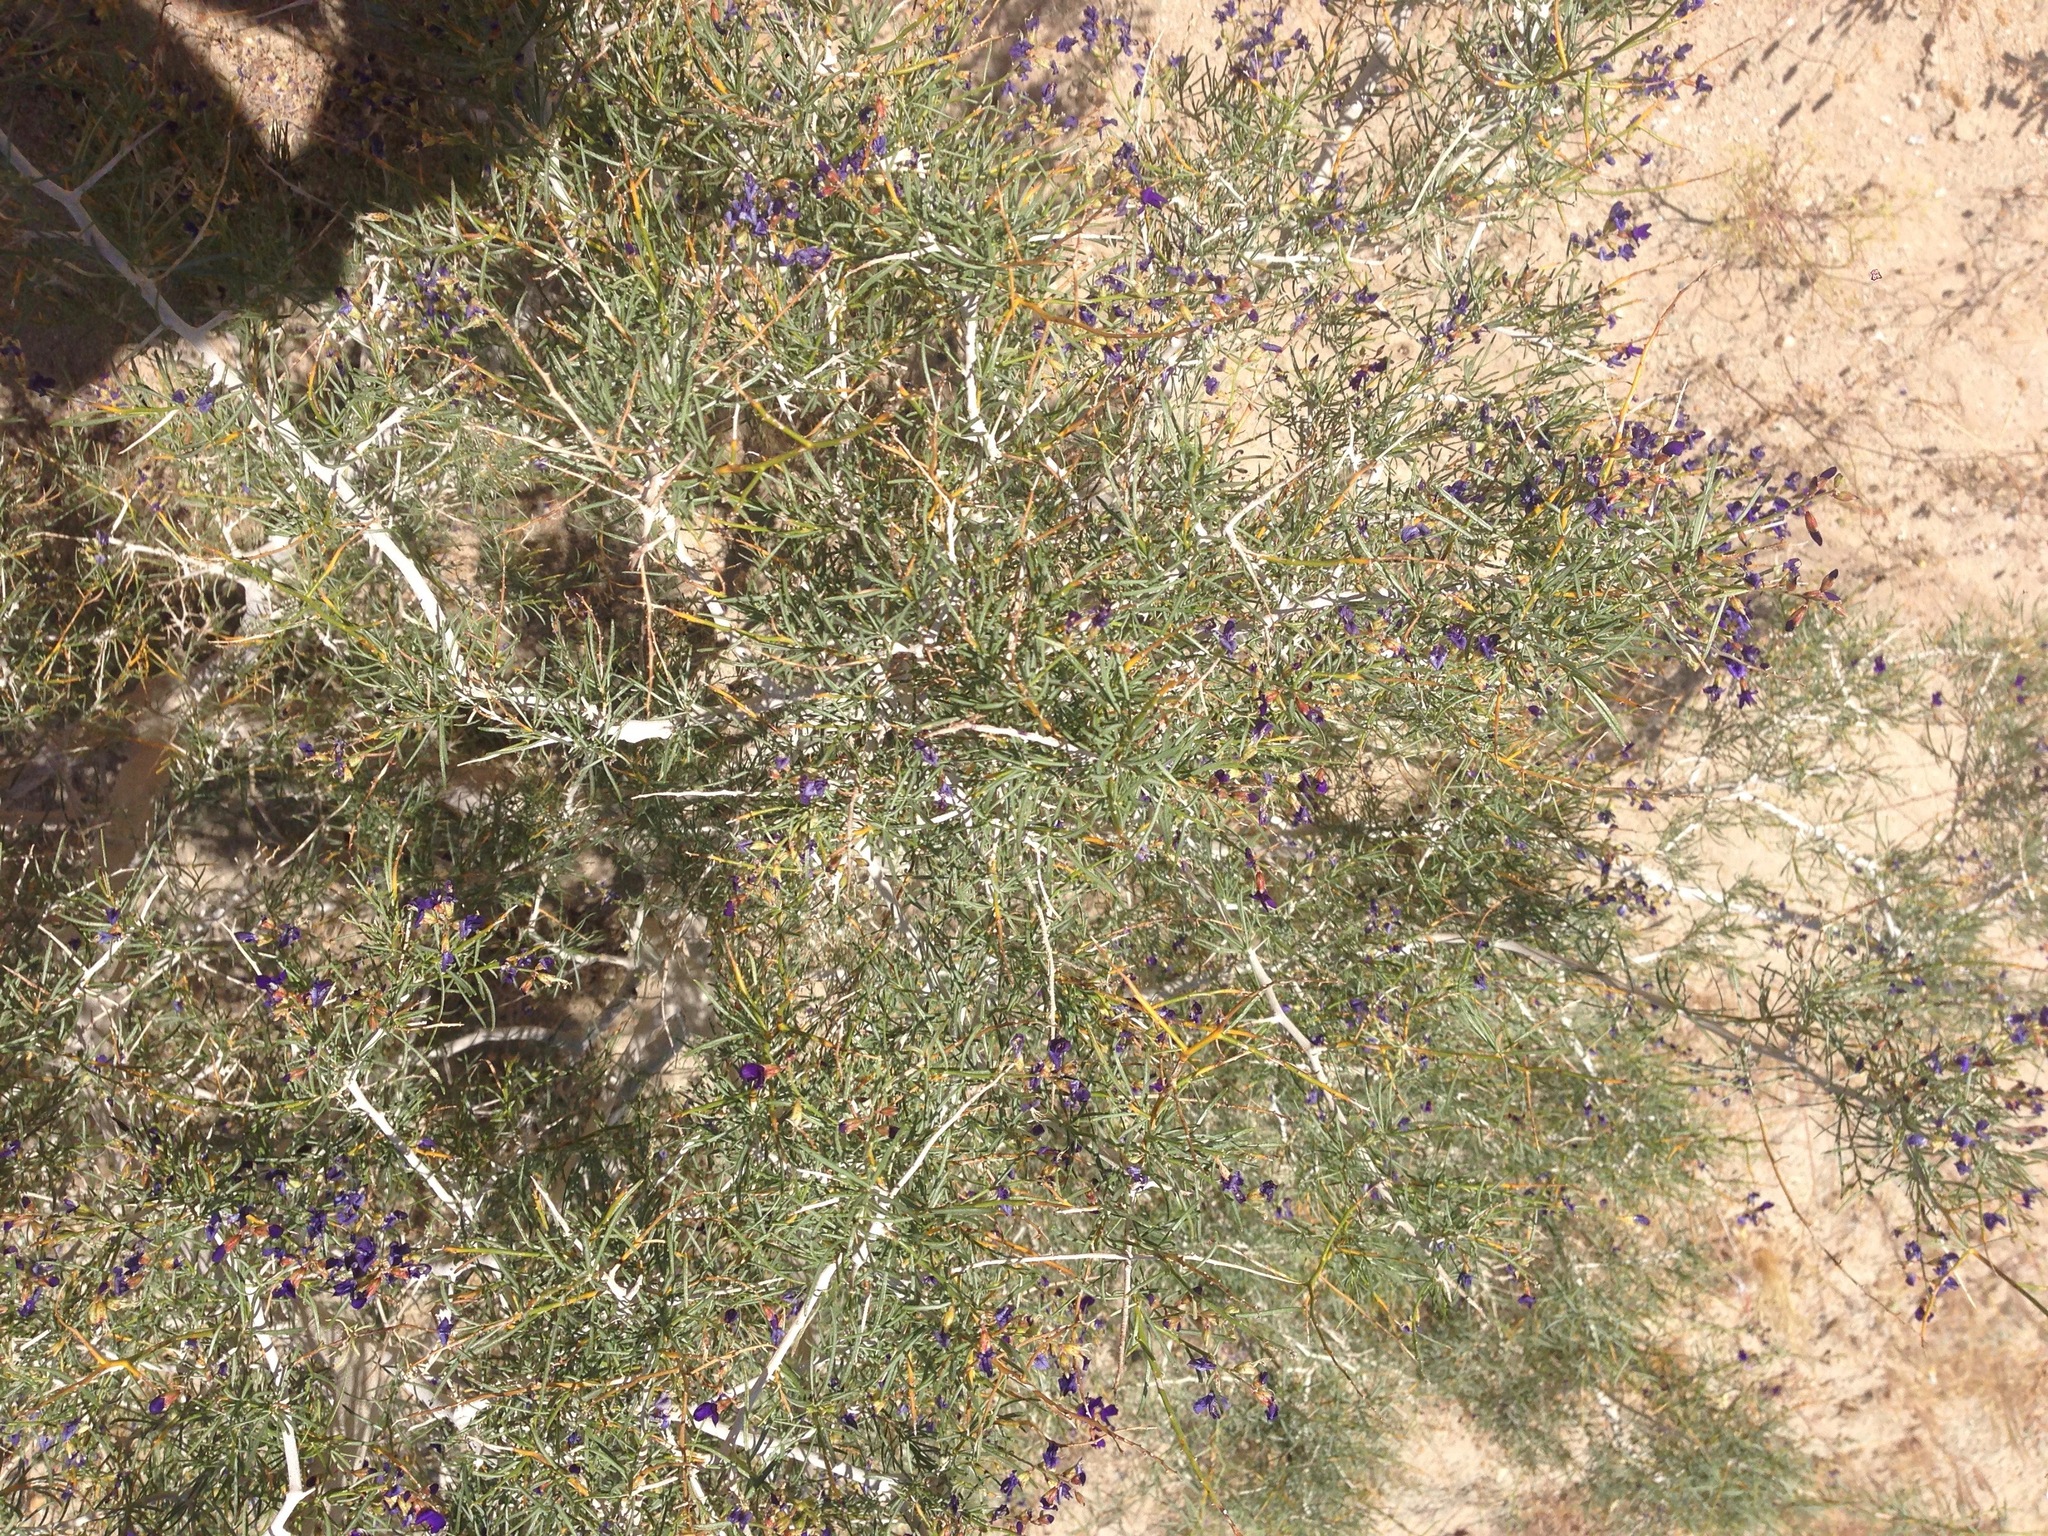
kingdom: Plantae
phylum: Tracheophyta
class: Magnoliopsida
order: Fabales
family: Fabaceae
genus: Psorothamnus
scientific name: Psorothamnus schottii
